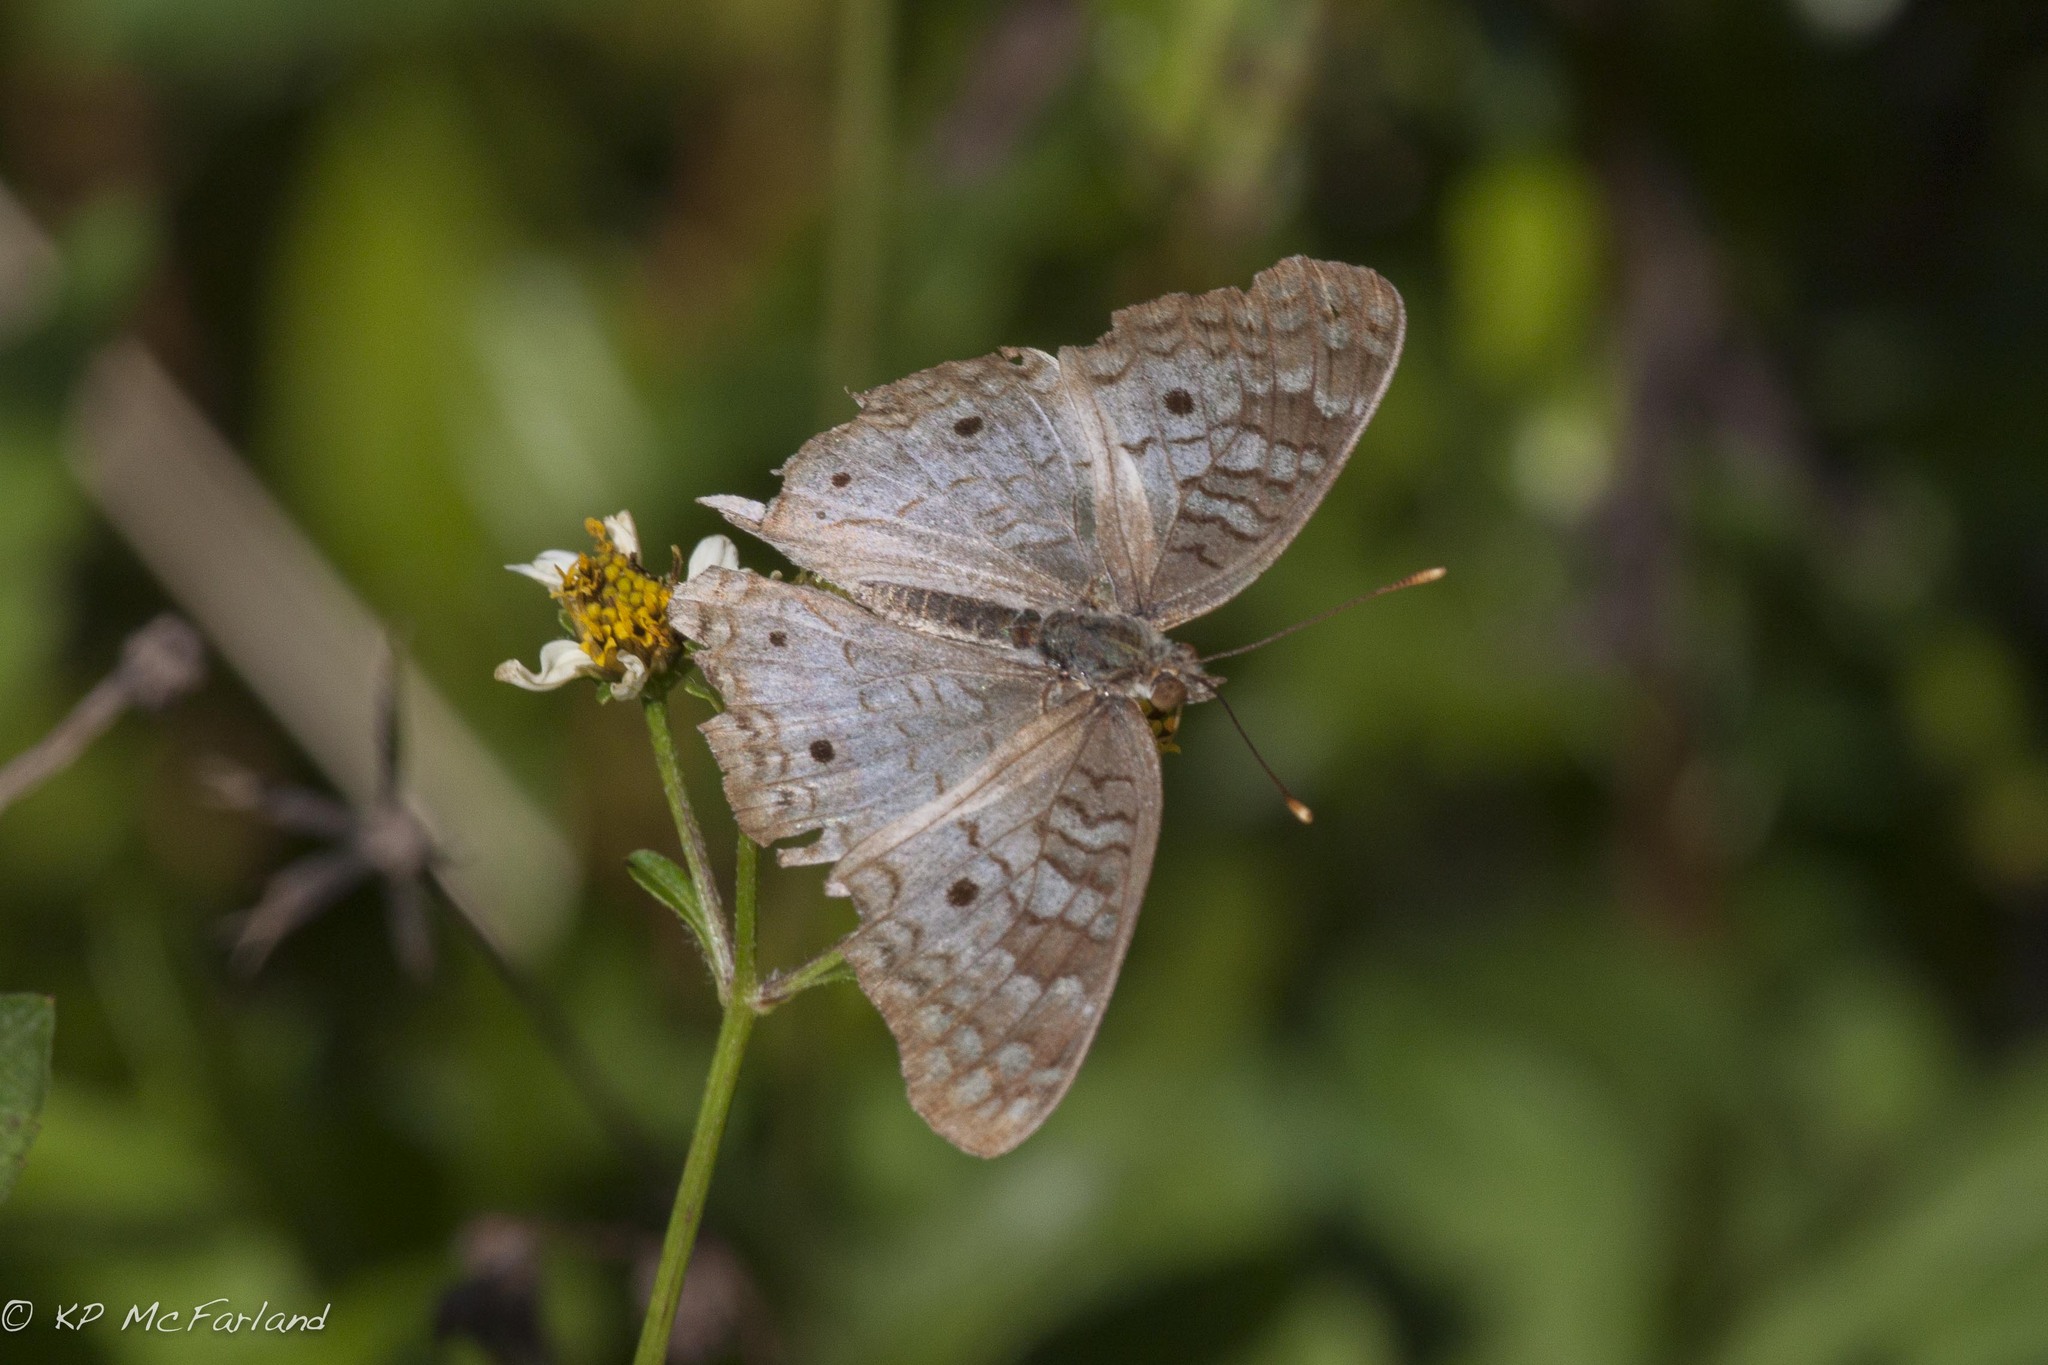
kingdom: Animalia
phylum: Arthropoda
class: Insecta
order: Lepidoptera
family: Nymphalidae
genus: Anartia
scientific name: Anartia jatrophae
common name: White peacock
